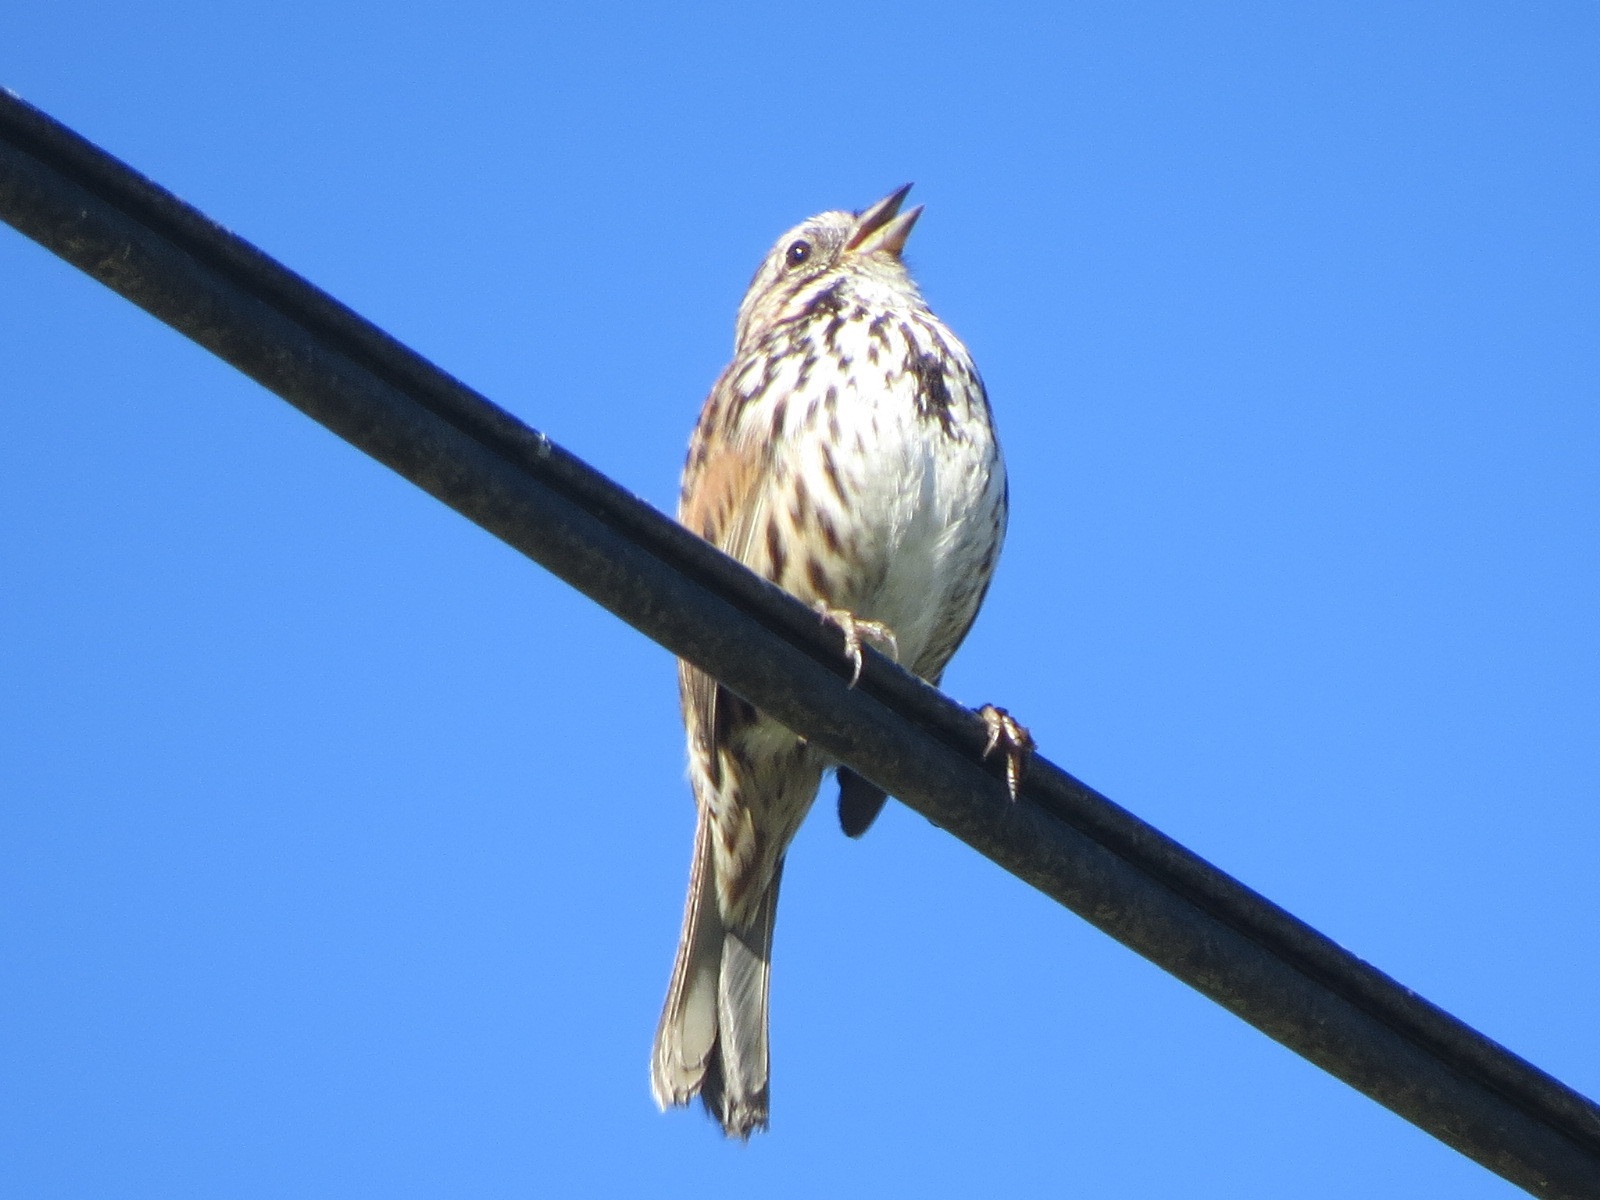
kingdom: Animalia
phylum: Chordata
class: Aves
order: Passeriformes
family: Passerellidae
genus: Melospiza
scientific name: Melospiza melodia
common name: Song sparrow
